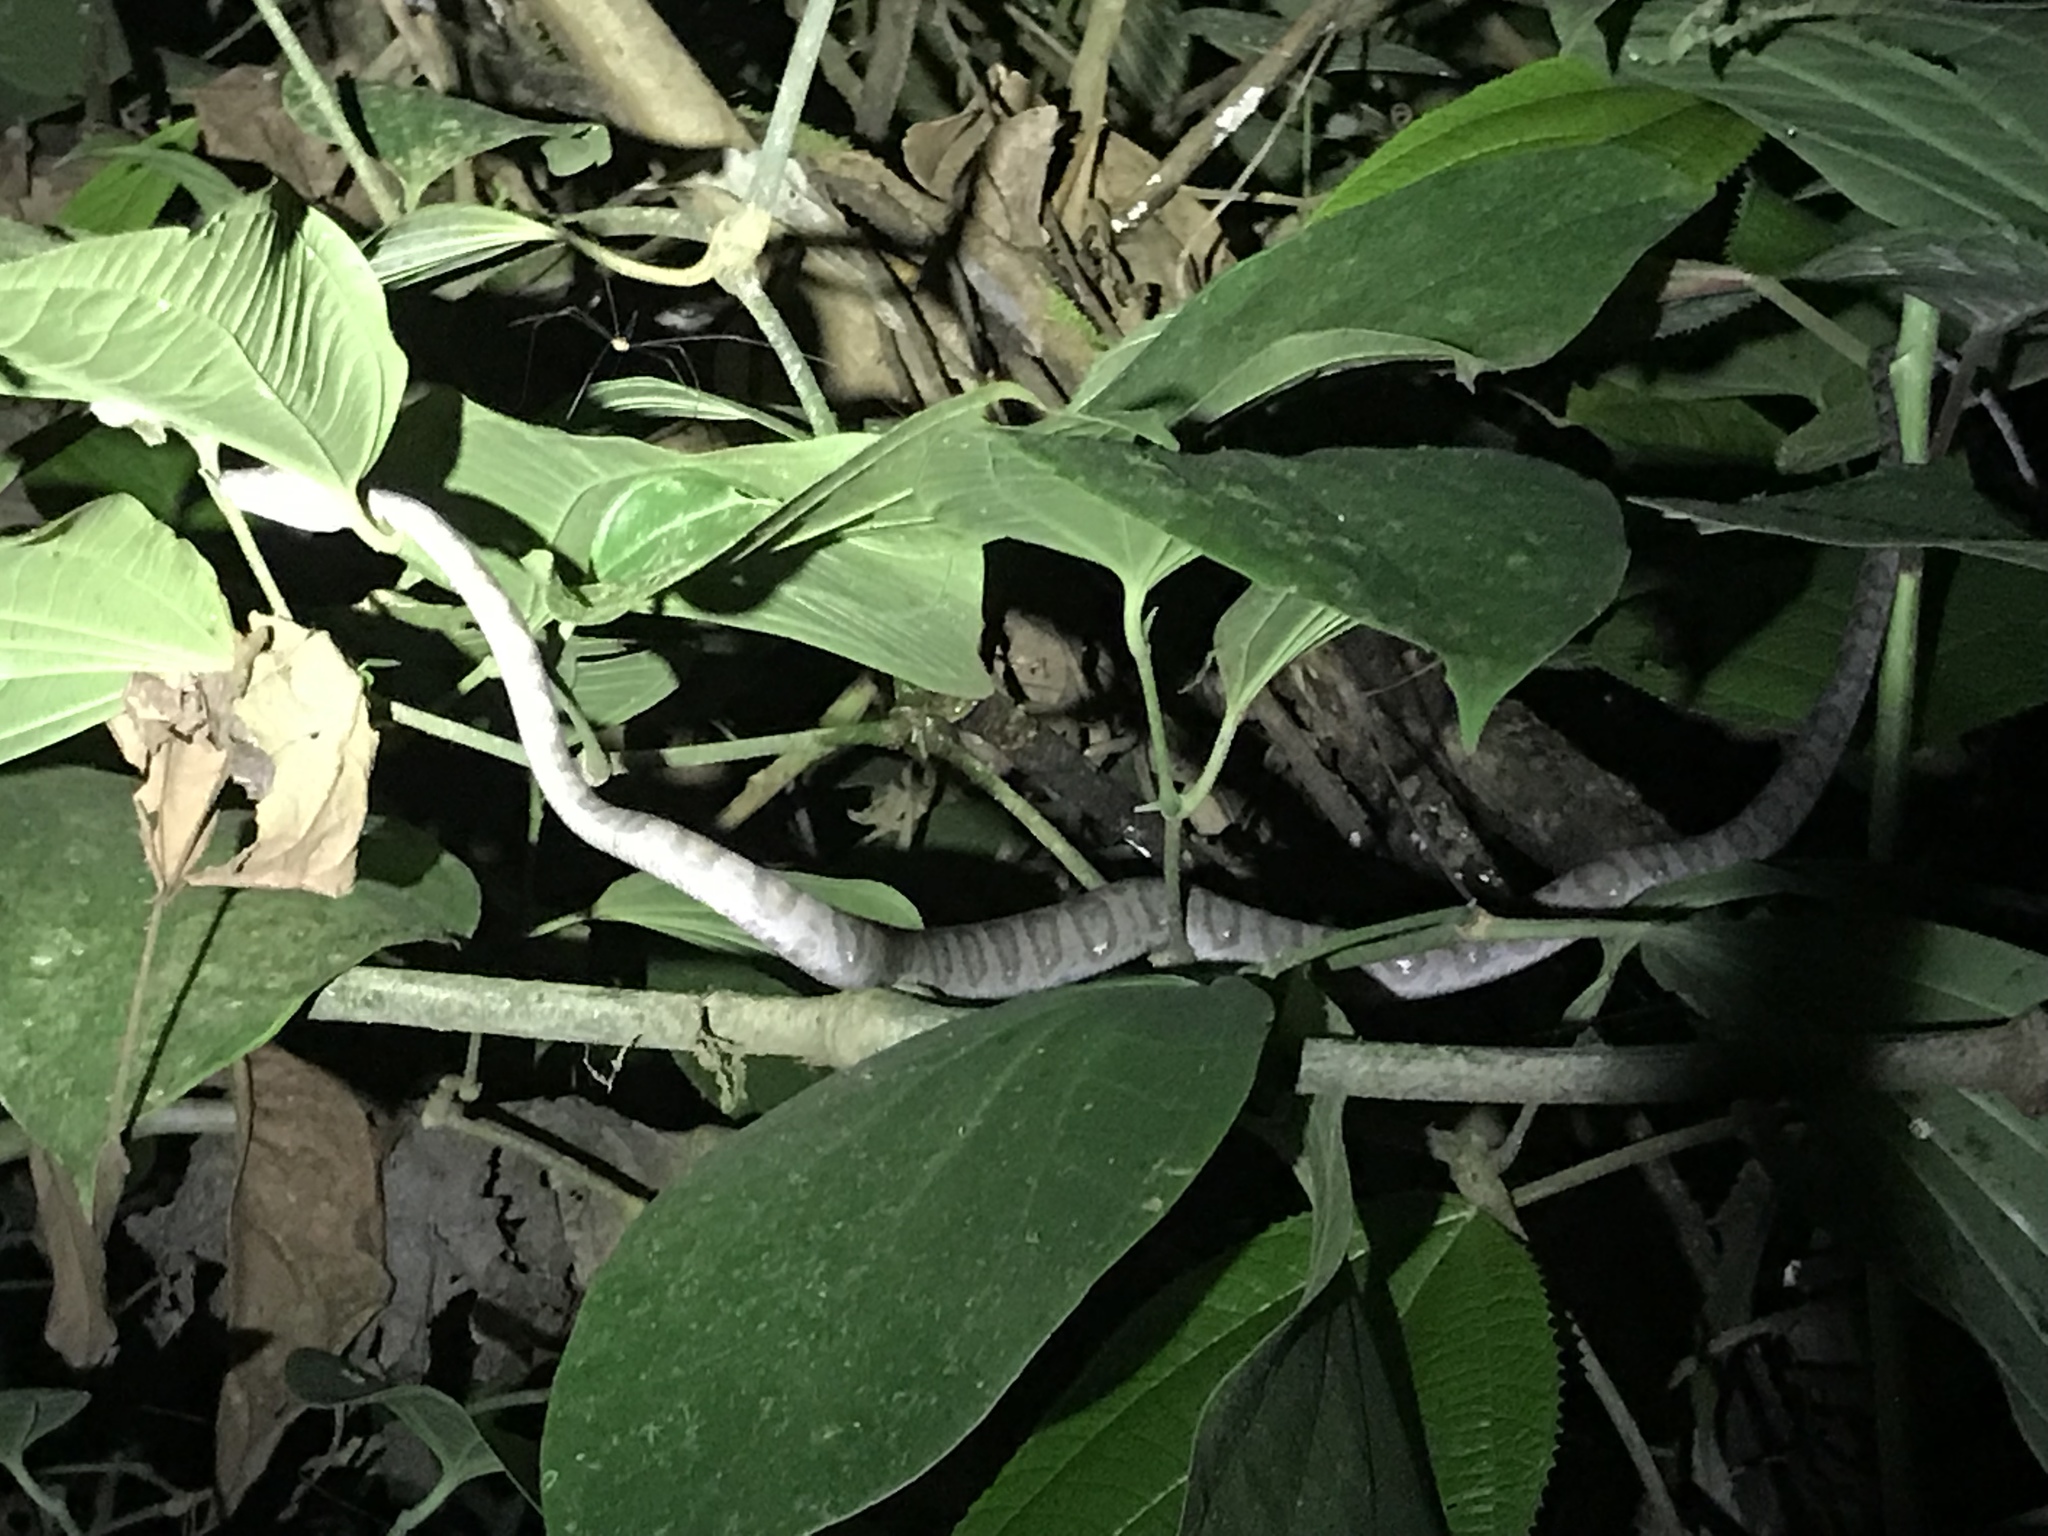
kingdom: Animalia
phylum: Chordata
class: Squamata
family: Boidae
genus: Corallus
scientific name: Corallus annulatus
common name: Ringed tree boa
